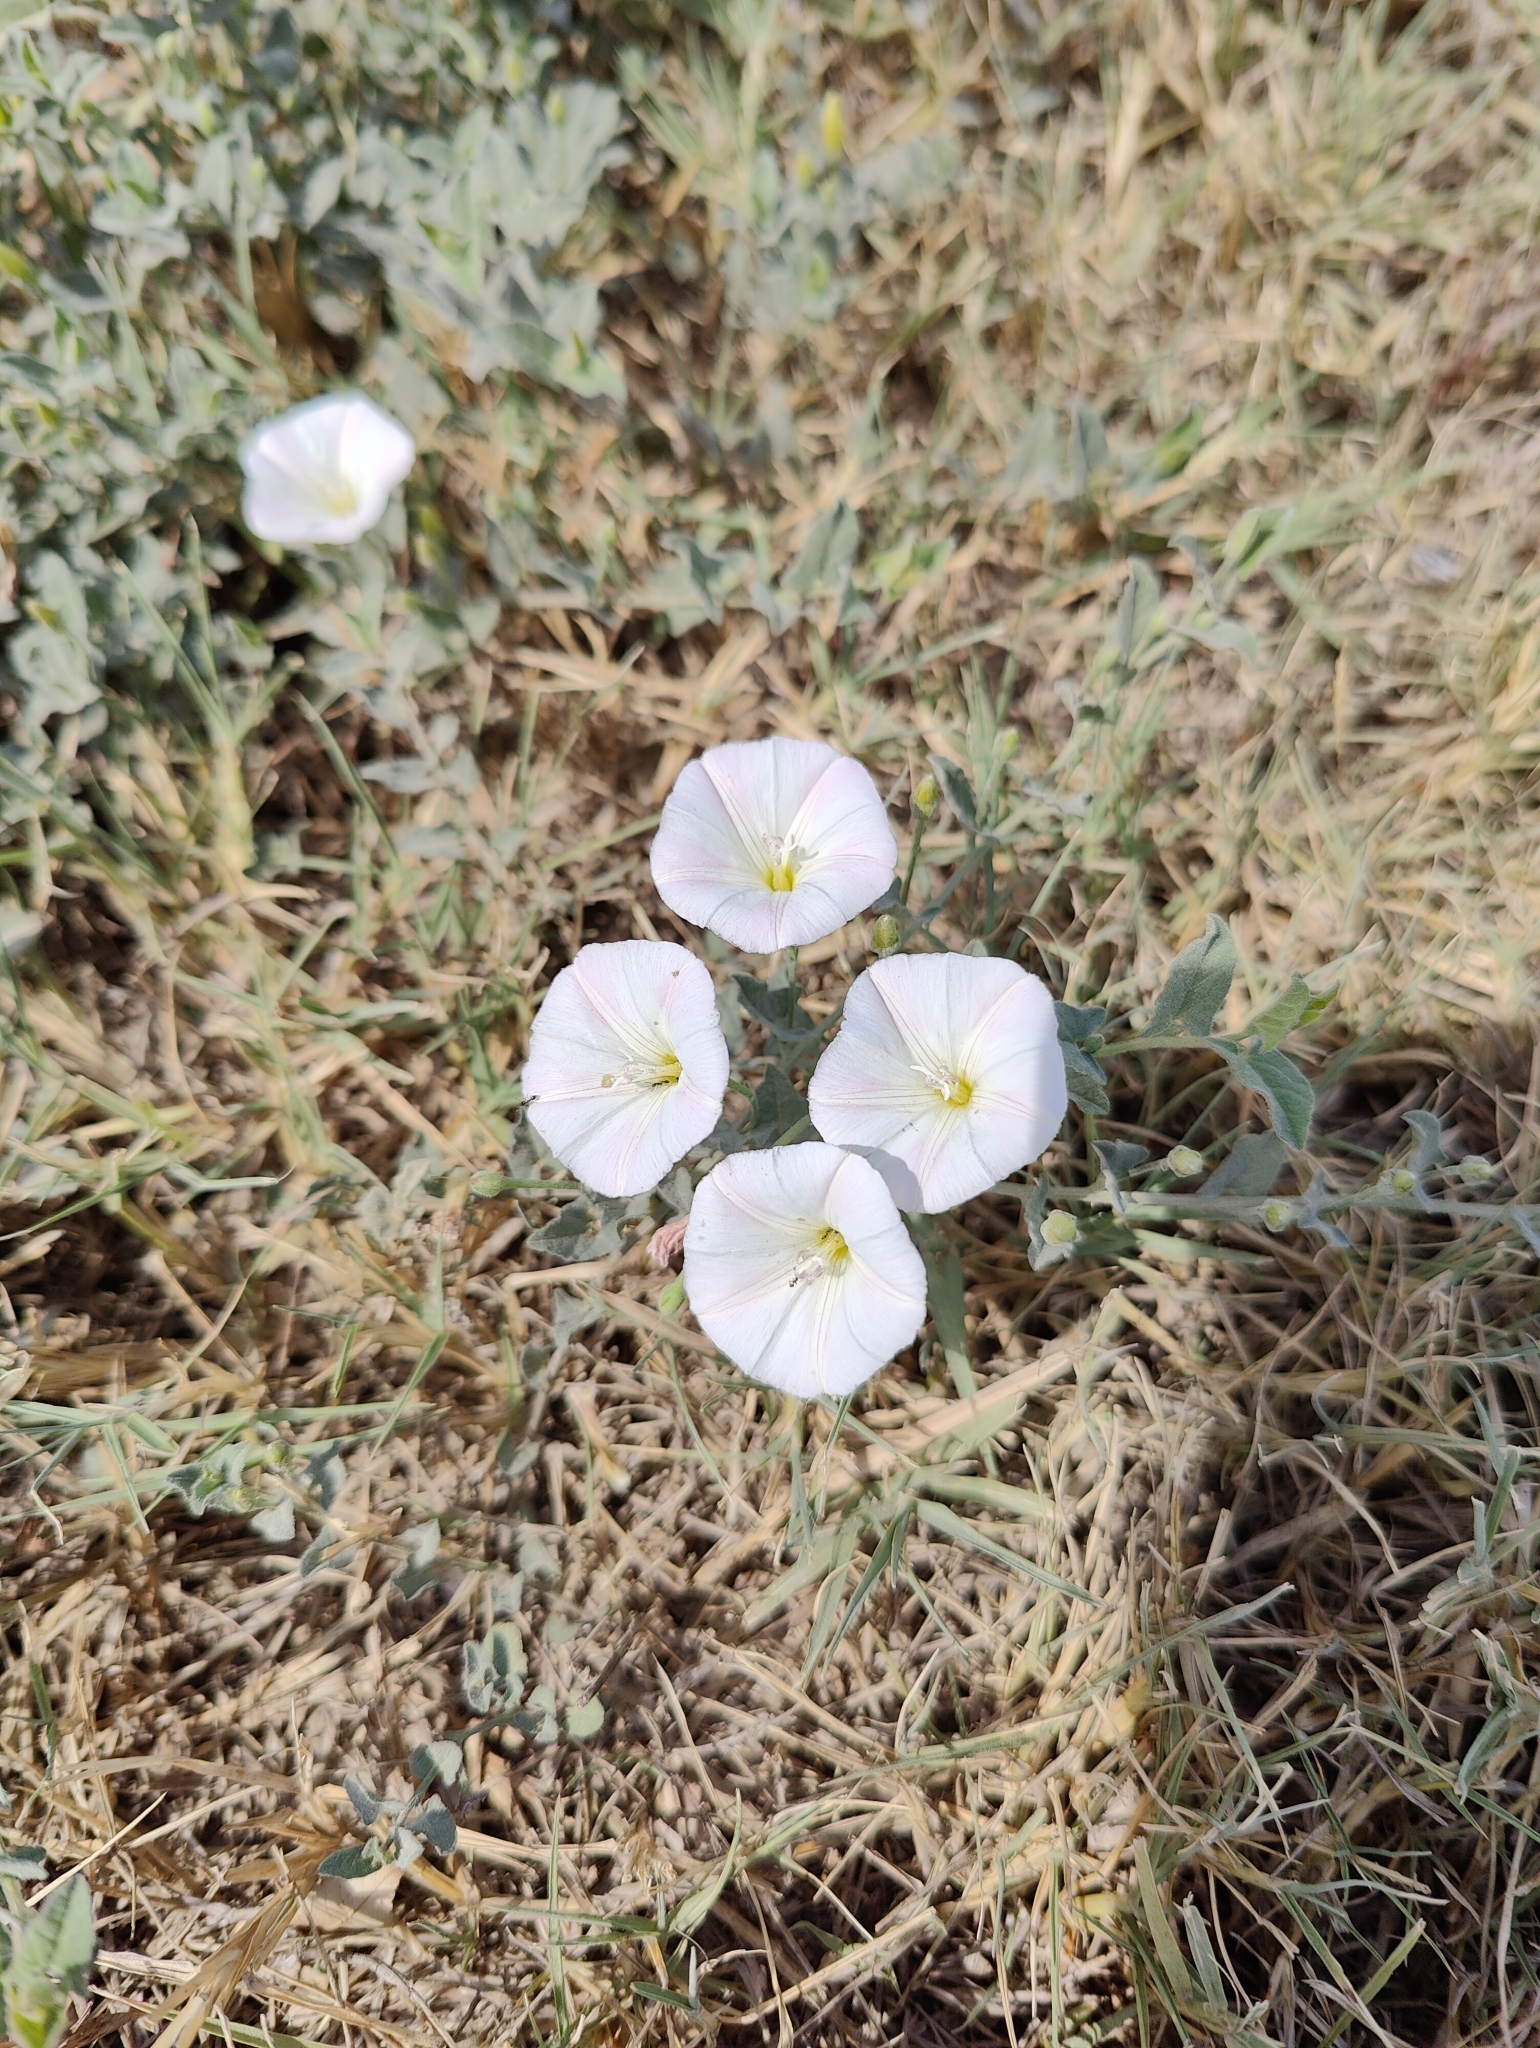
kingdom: Plantae
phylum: Tracheophyta
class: Magnoliopsida
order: Solanales
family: Convolvulaceae
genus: Convolvulus
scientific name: Convolvulus arvensis
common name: Field bindweed
